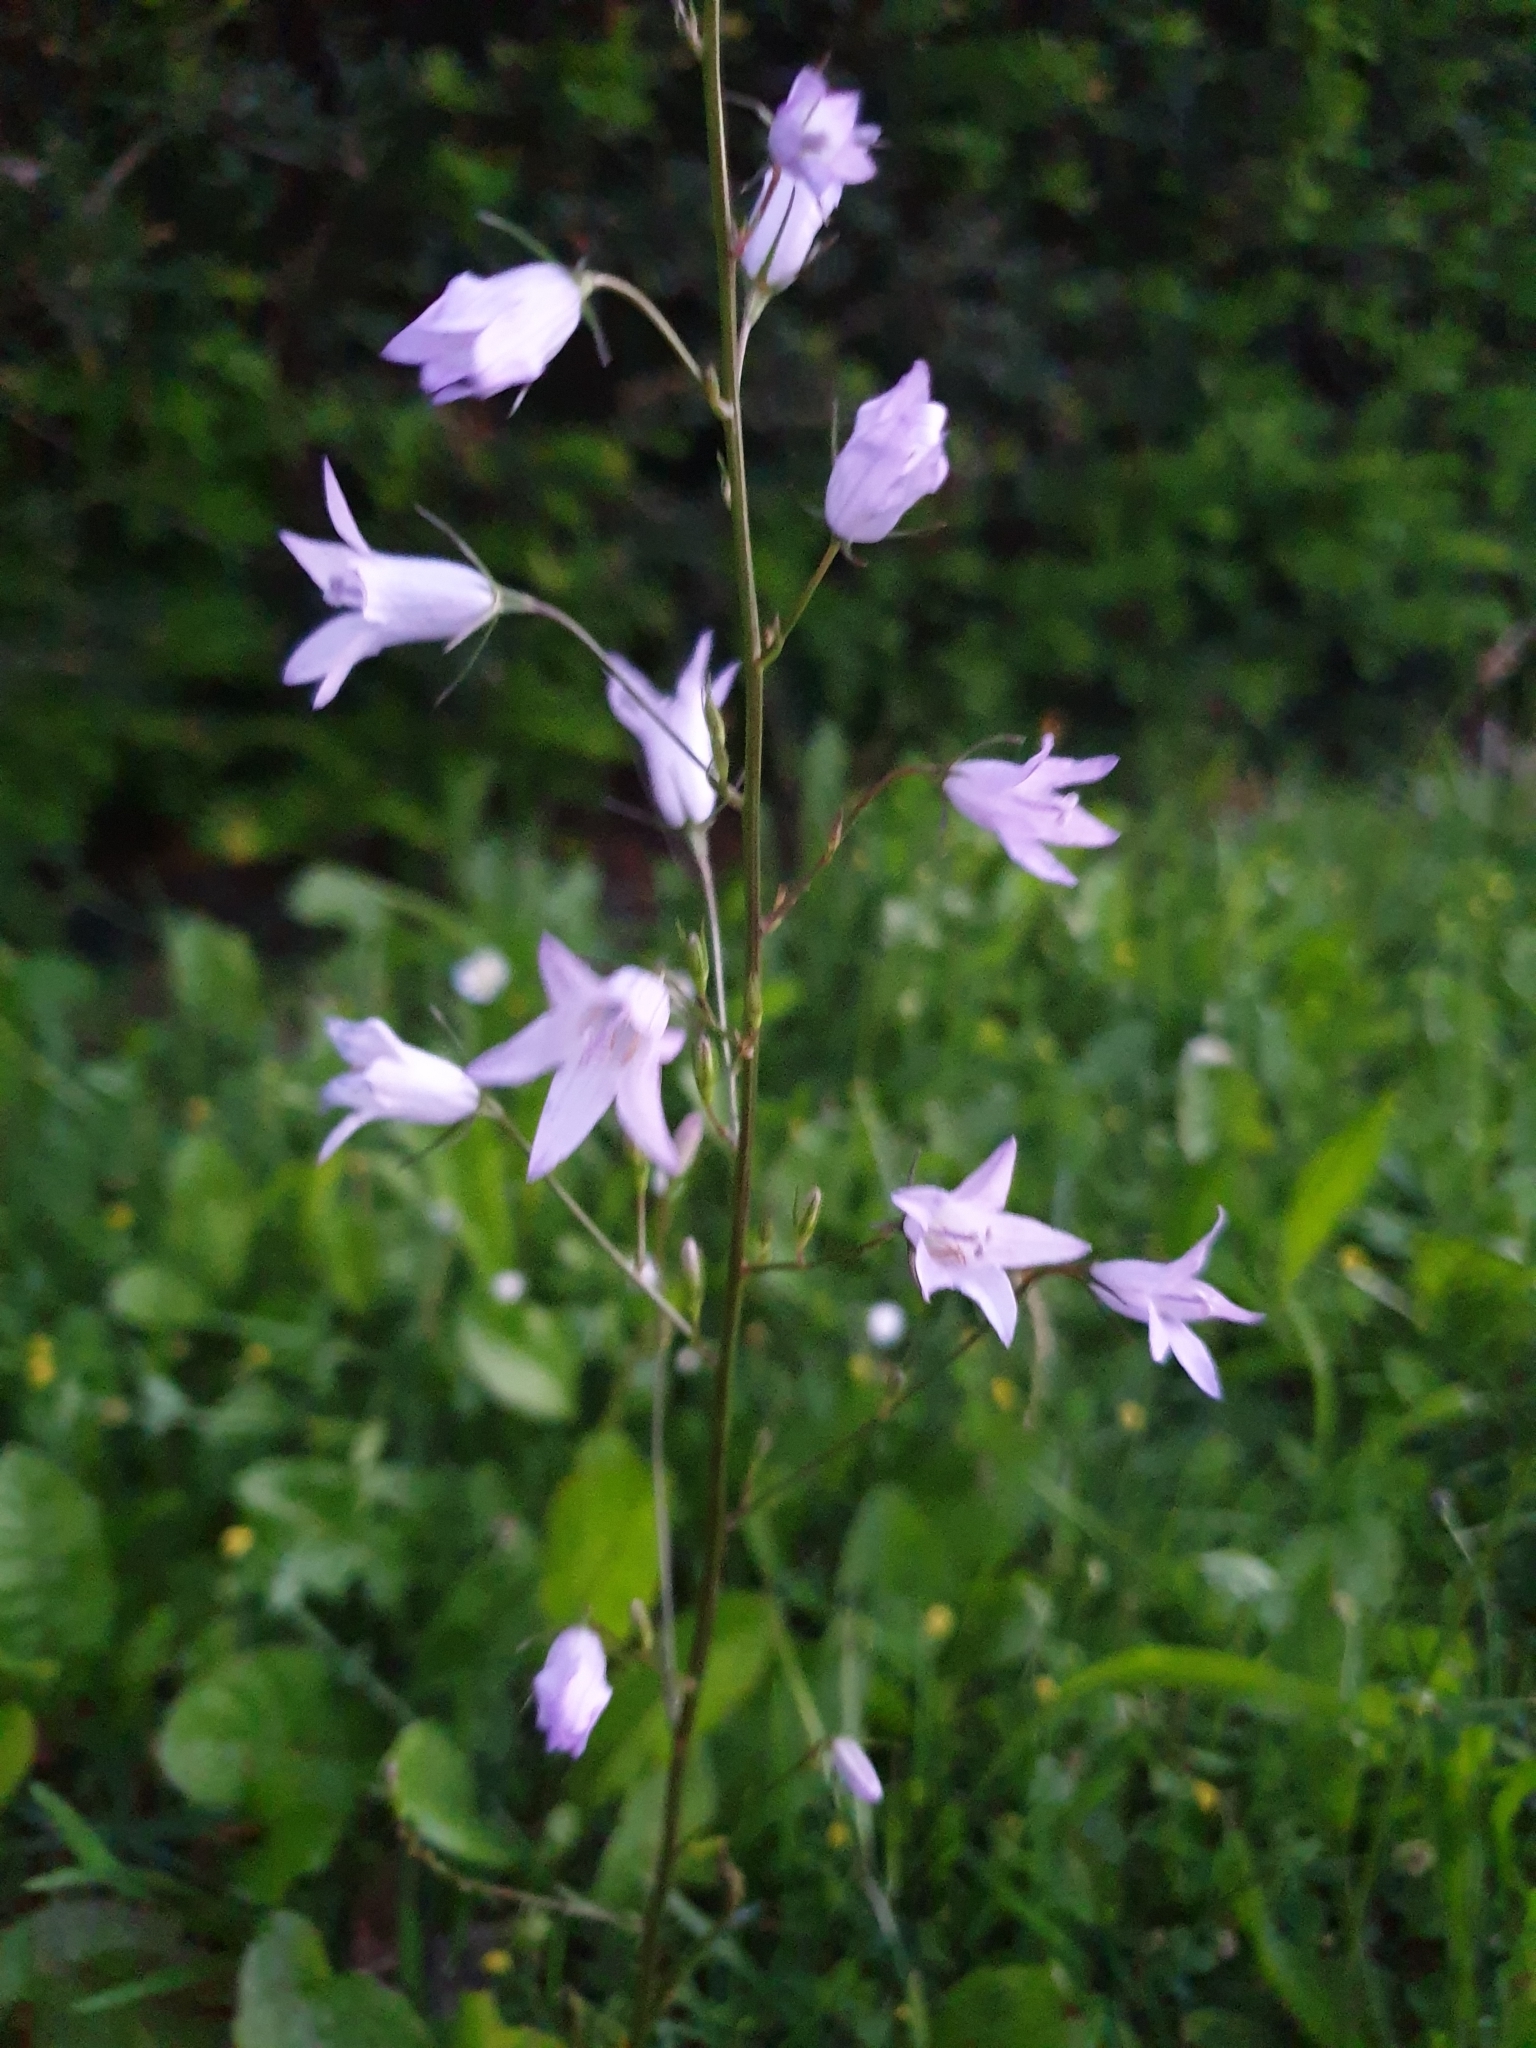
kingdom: Plantae
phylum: Tracheophyta
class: Magnoliopsida
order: Asterales
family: Campanulaceae
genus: Campanula
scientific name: Campanula rapunculus
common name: Rampion bellflower
